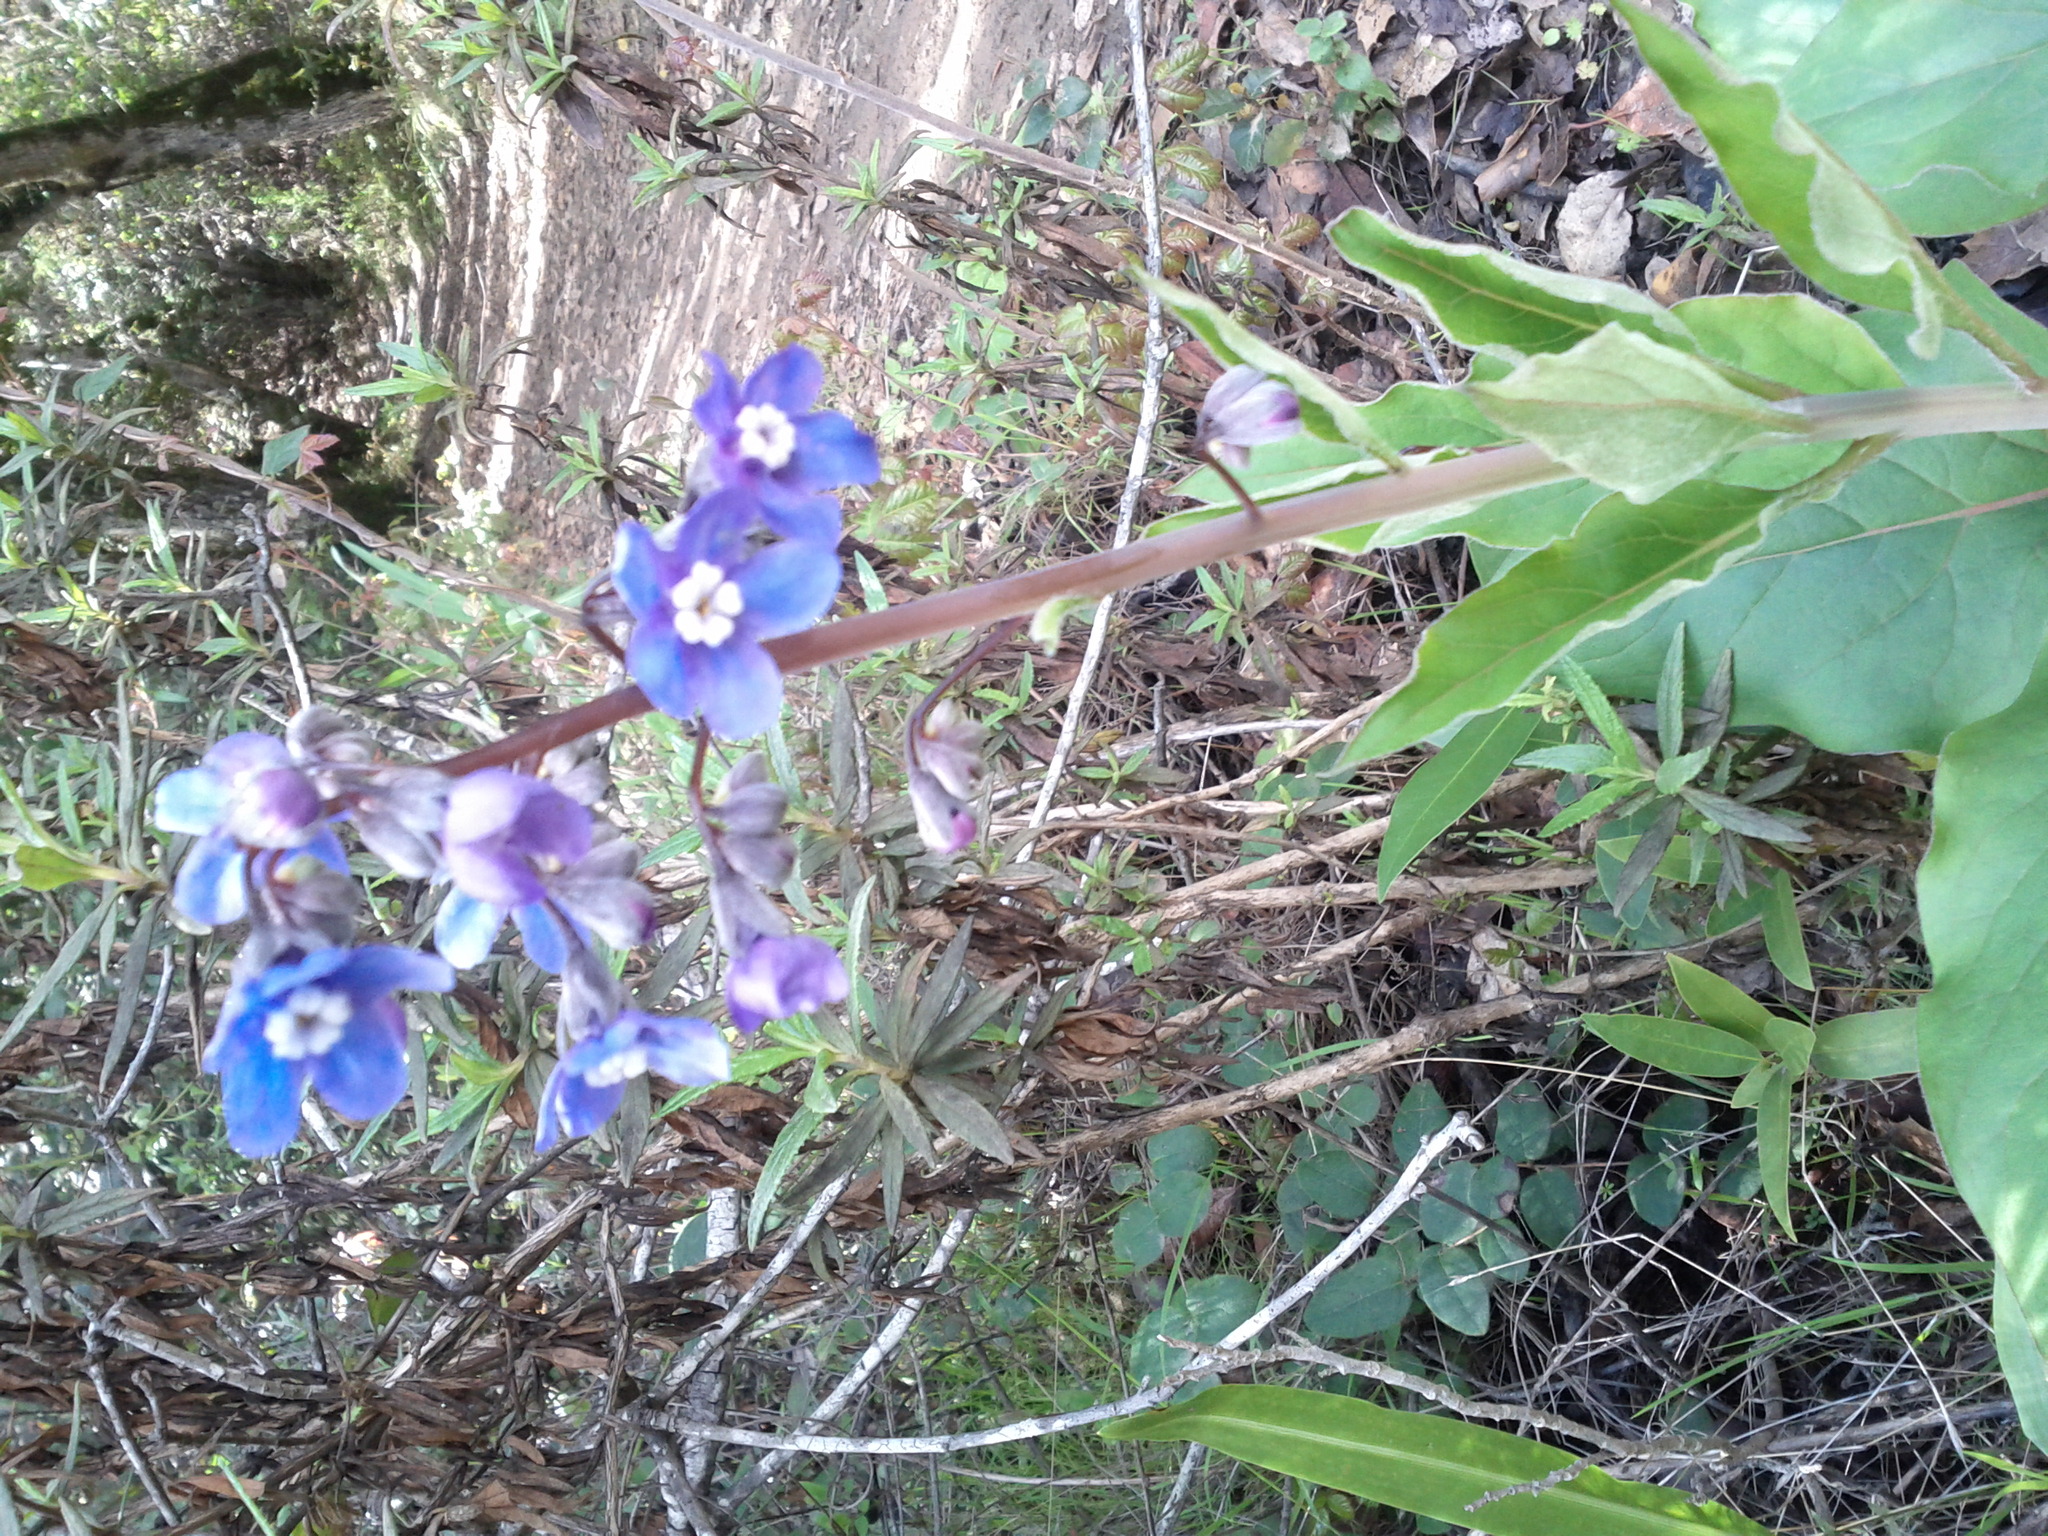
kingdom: Plantae
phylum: Tracheophyta
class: Magnoliopsida
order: Boraginales
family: Boraginaceae
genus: Adelinia
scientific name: Adelinia grande
